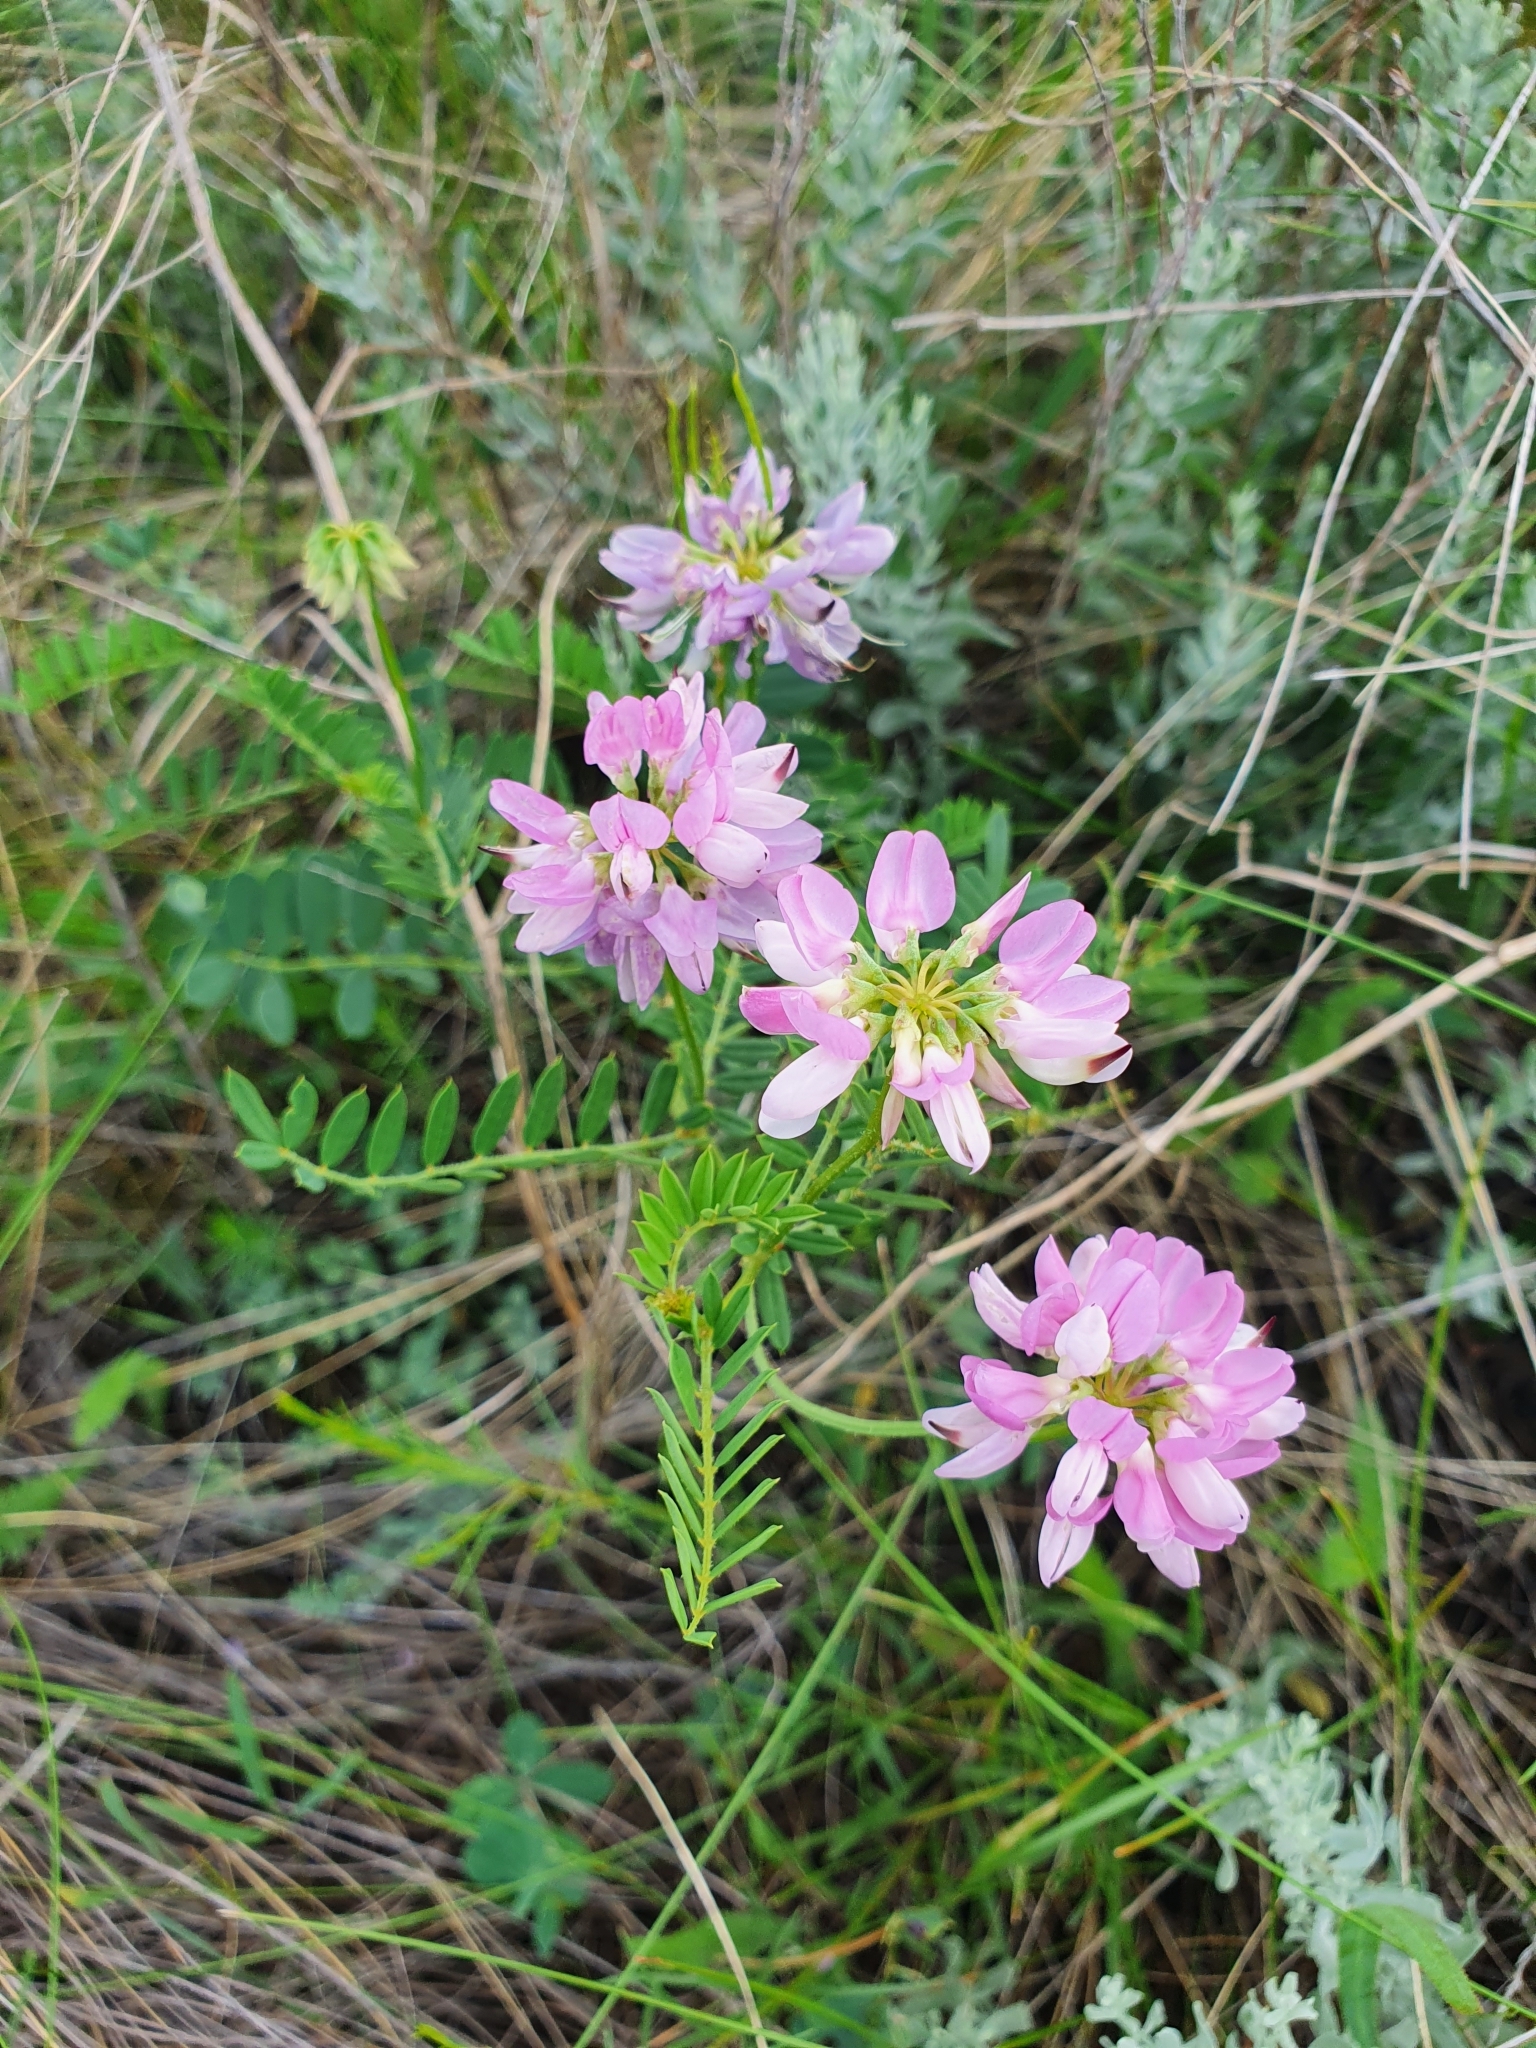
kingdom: Plantae
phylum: Tracheophyta
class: Magnoliopsida
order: Fabales
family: Fabaceae
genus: Coronilla
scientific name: Coronilla varia
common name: Crownvetch
